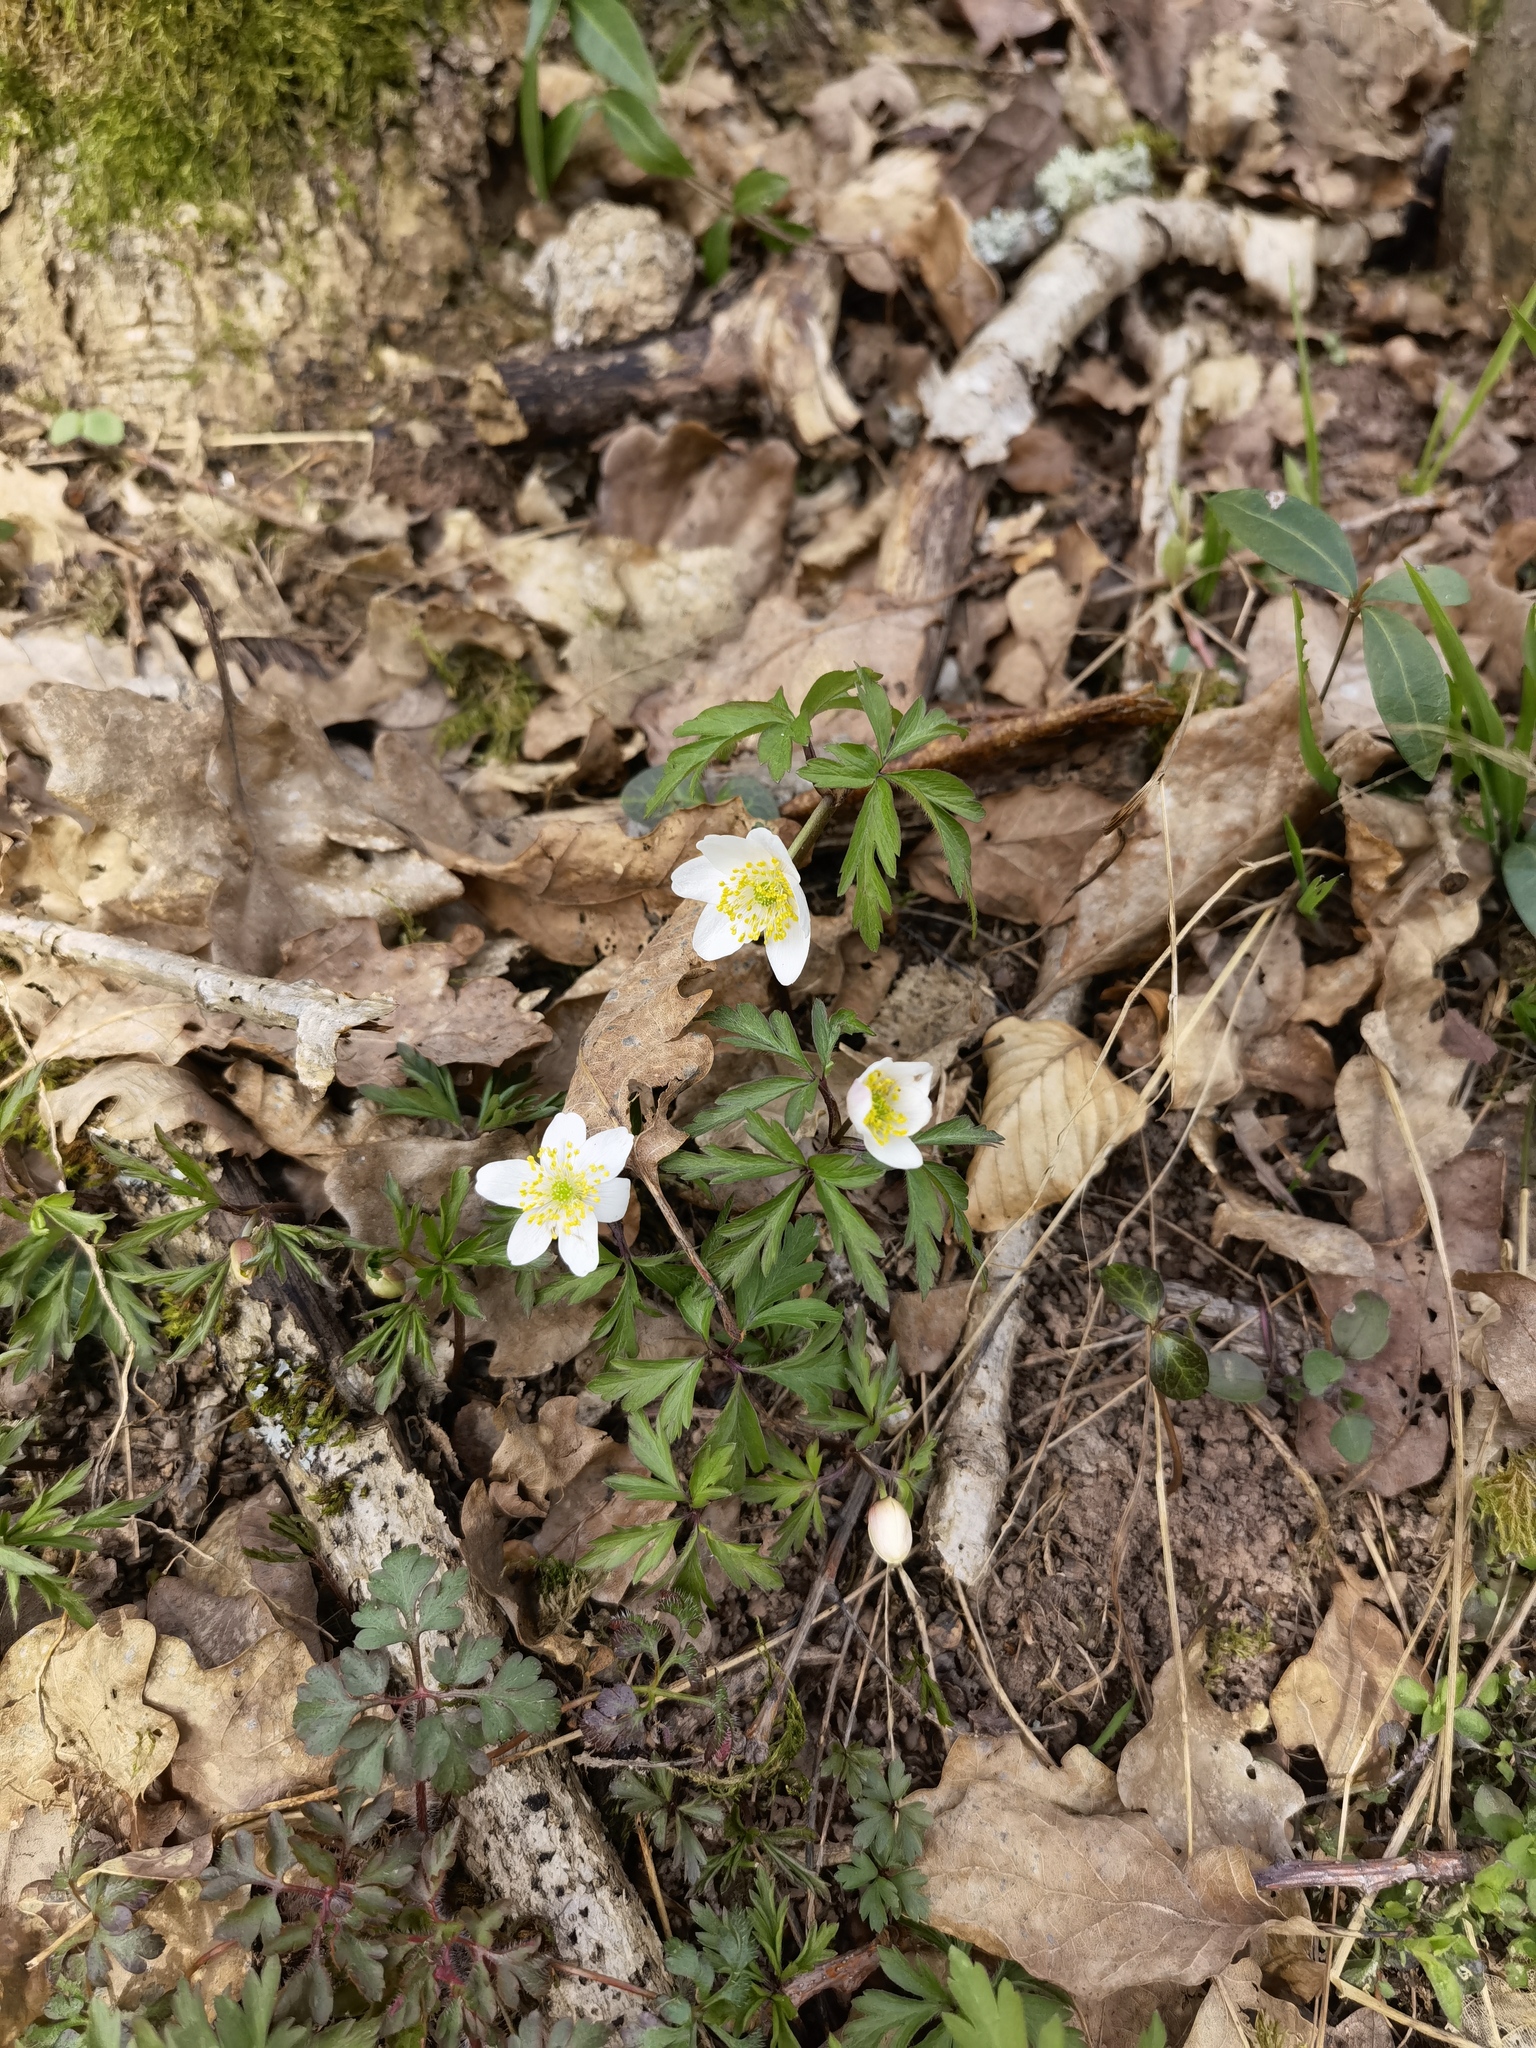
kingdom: Plantae
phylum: Tracheophyta
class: Magnoliopsida
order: Ranunculales
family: Ranunculaceae
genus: Anemone
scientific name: Anemone nemorosa
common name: Wood anemone
